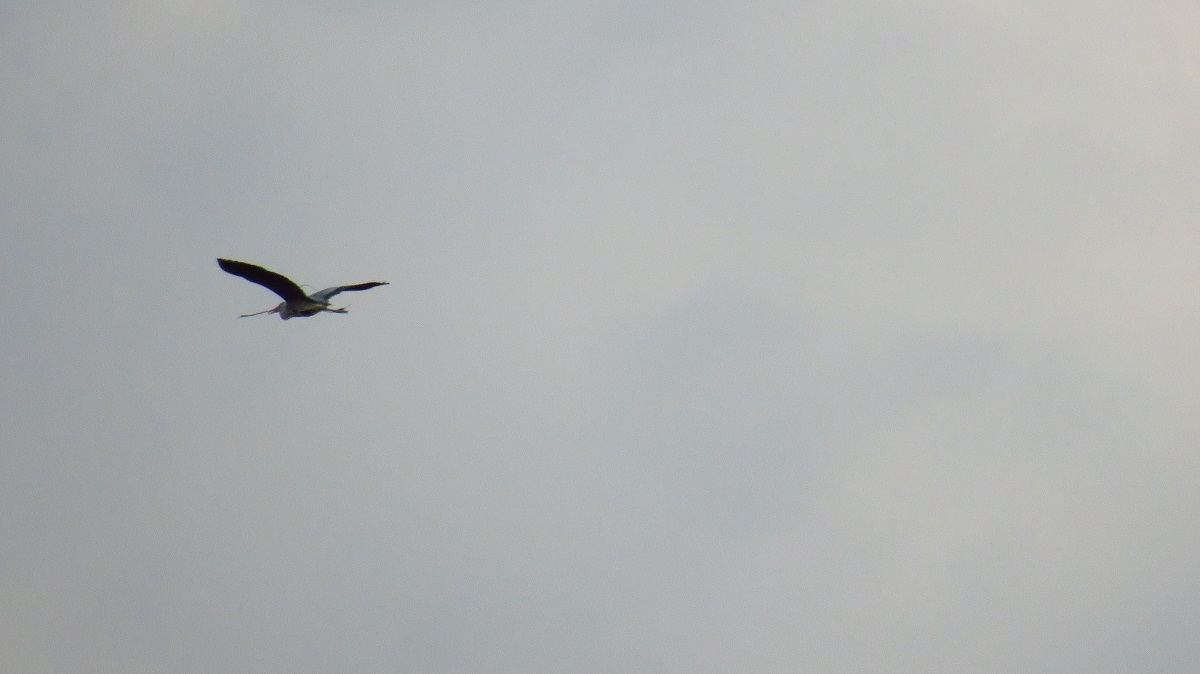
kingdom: Animalia
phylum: Chordata
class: Aves
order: Pelecaniformes
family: Ardeidae
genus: Ardea
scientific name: Ardea cinerea
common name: Grey heron
